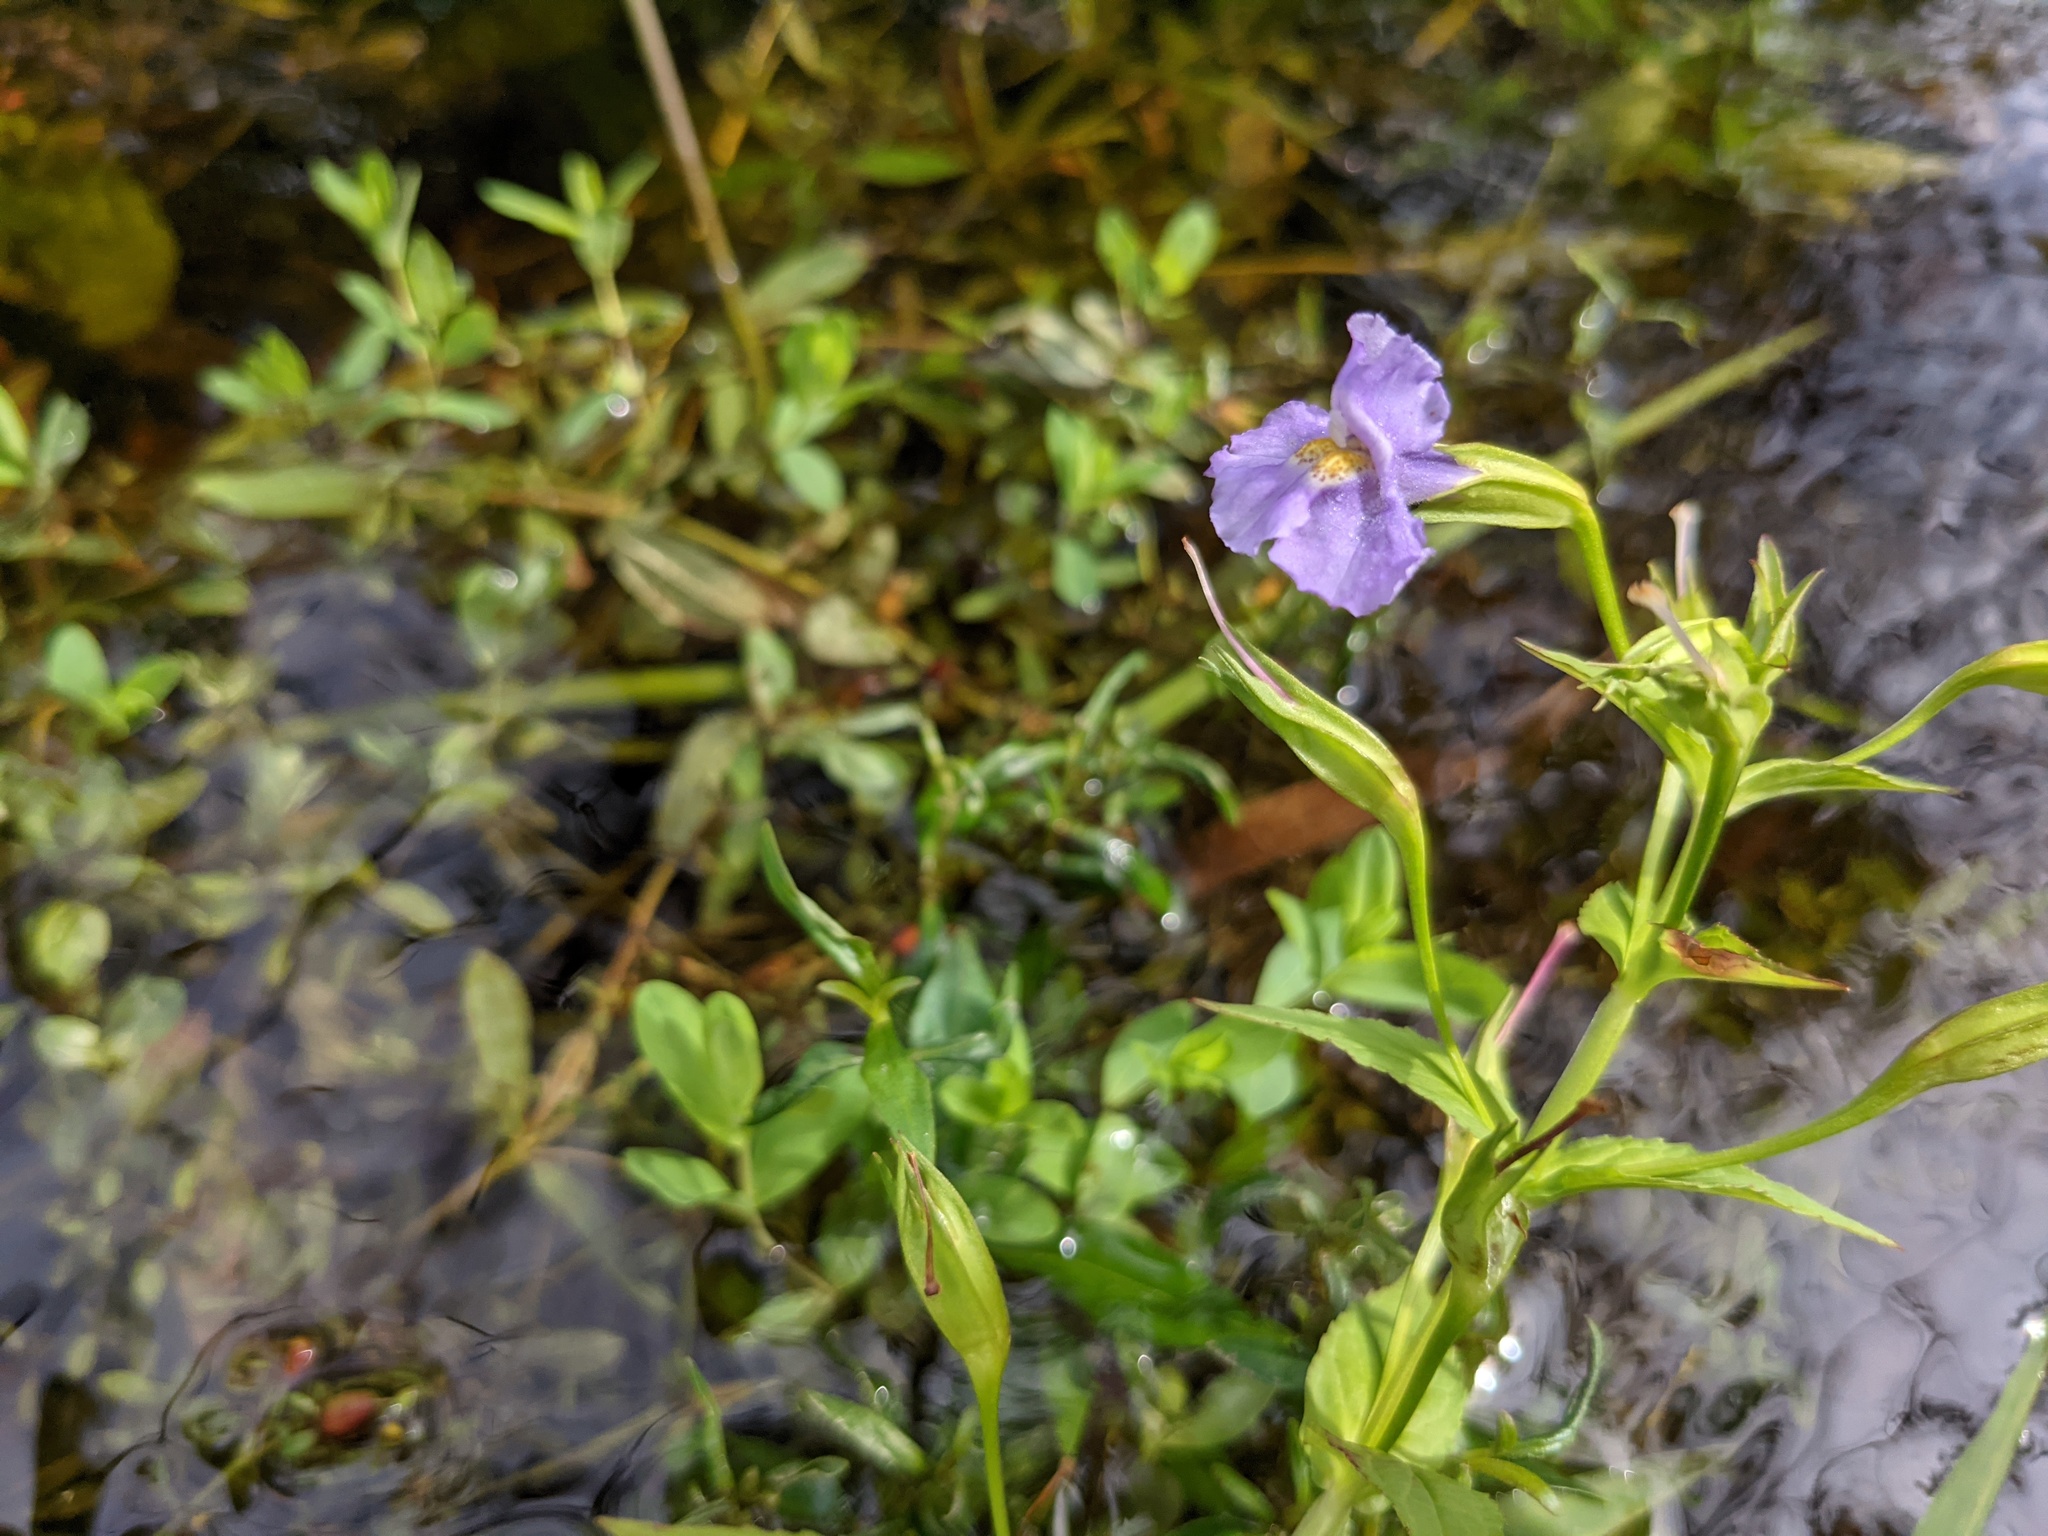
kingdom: Plantae
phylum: Tracheophyta
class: Magnoliopsida
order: Lamiales
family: Phrymaceae
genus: Mimulus
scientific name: Mimulus ringens
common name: Allegheny monkeyflower
